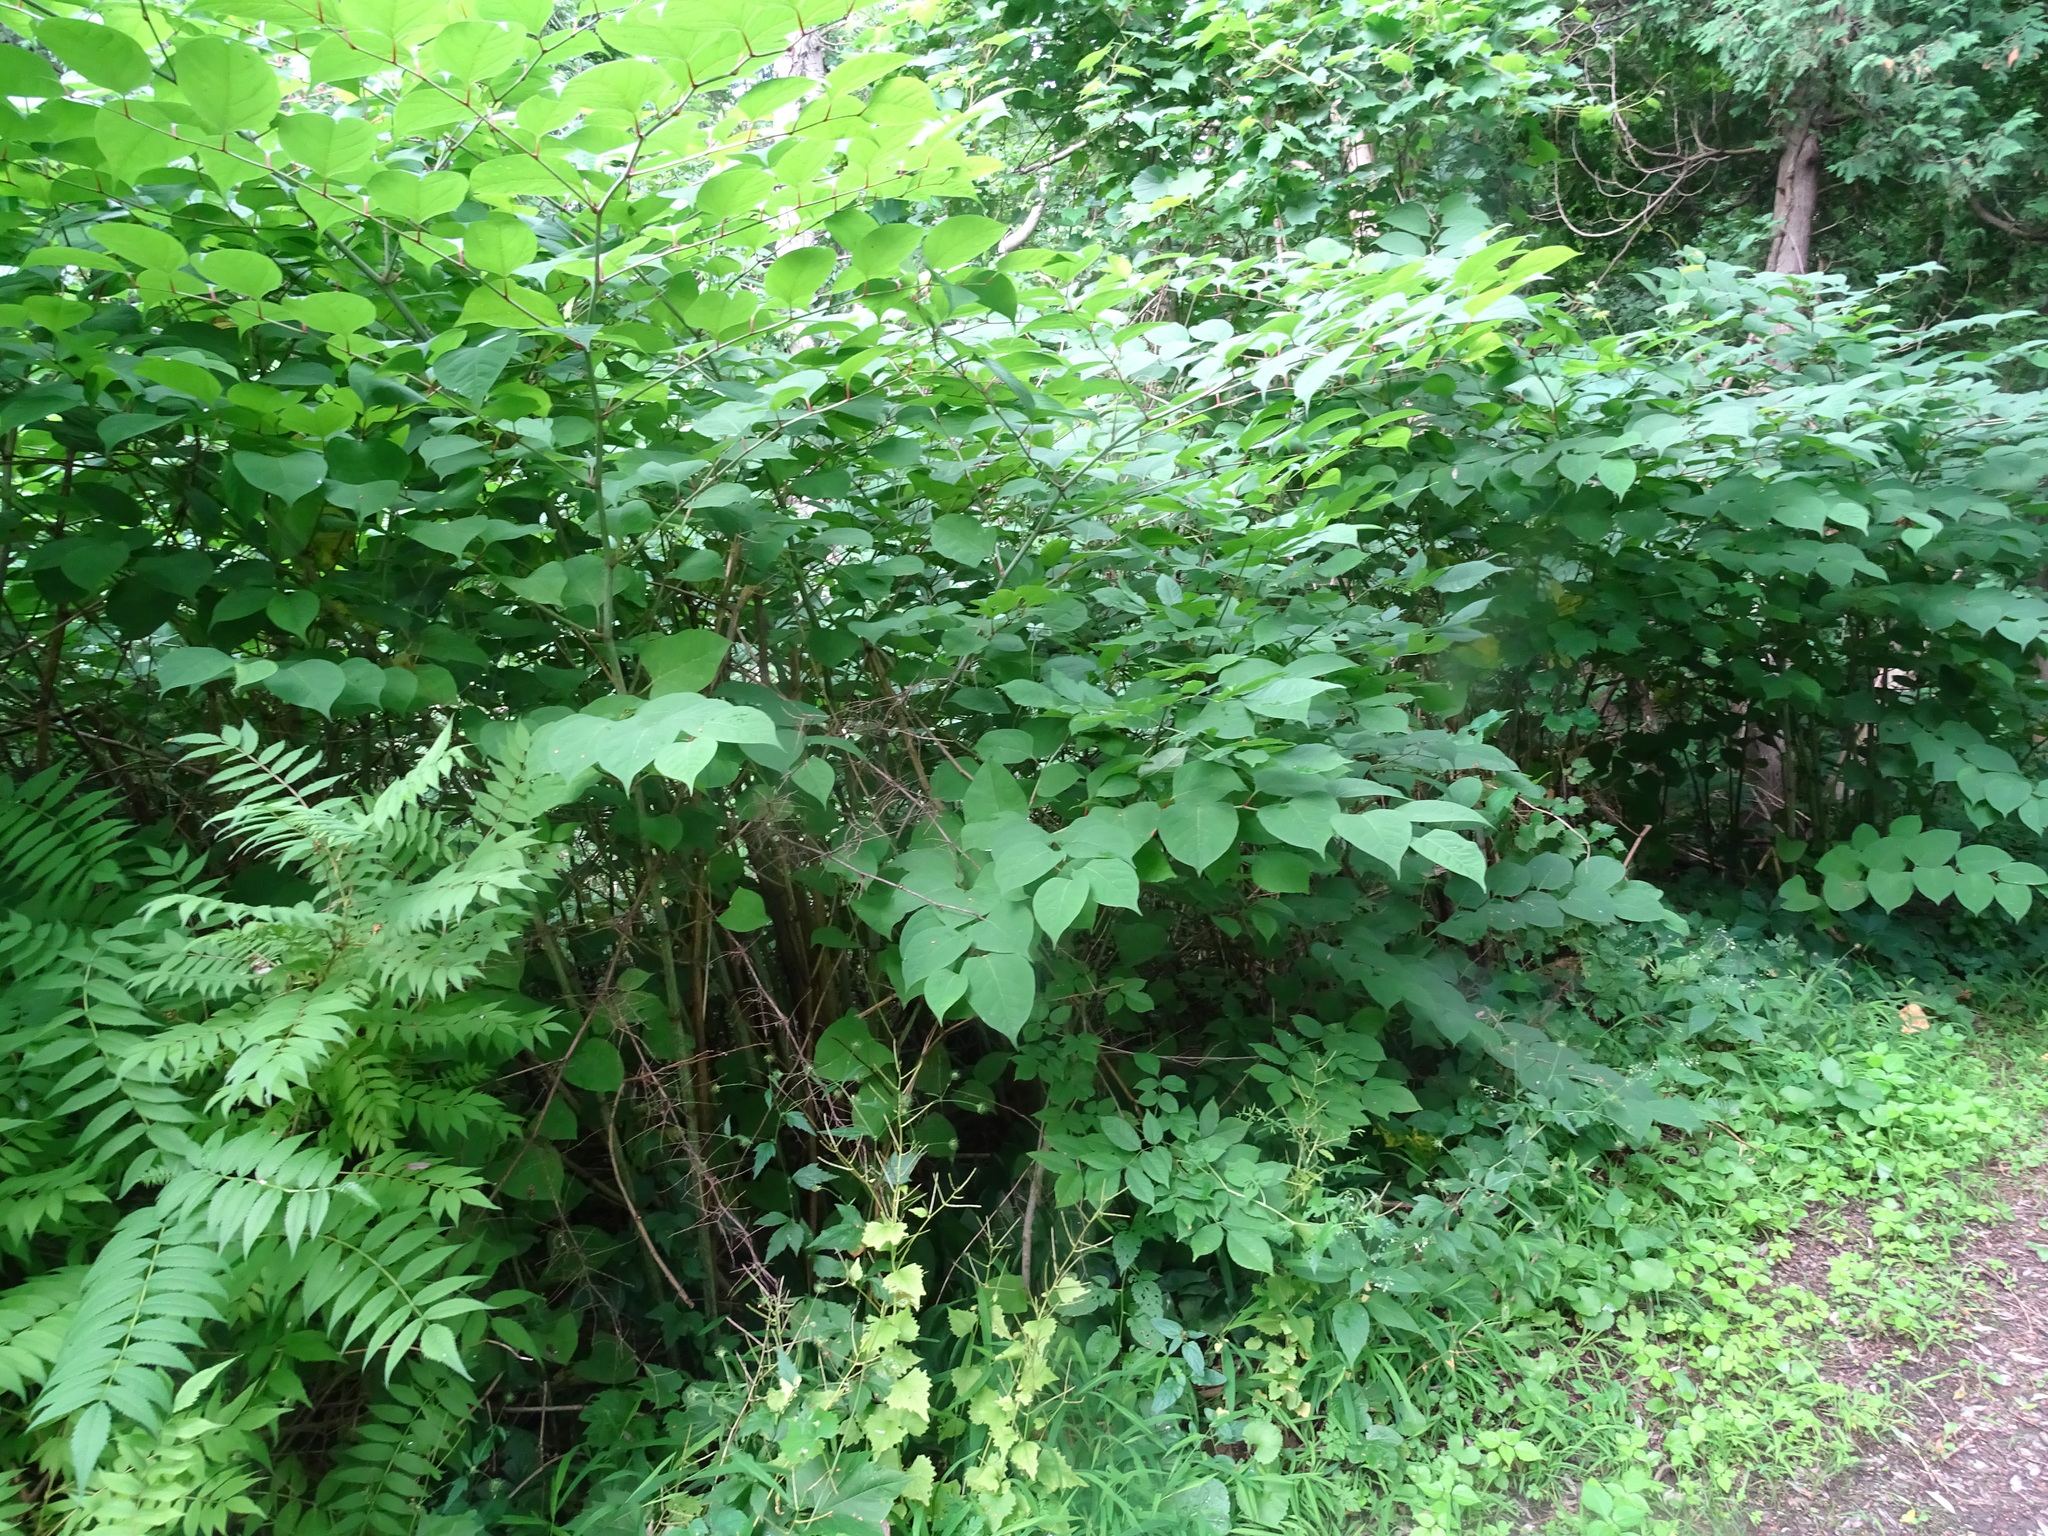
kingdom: Plantae
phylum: Tracheophyta
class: Magnoliopsida
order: Caryophyllales
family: Polygonaceae
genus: Reynoutria
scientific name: Reynoutria japonica
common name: Japanese knotweed
